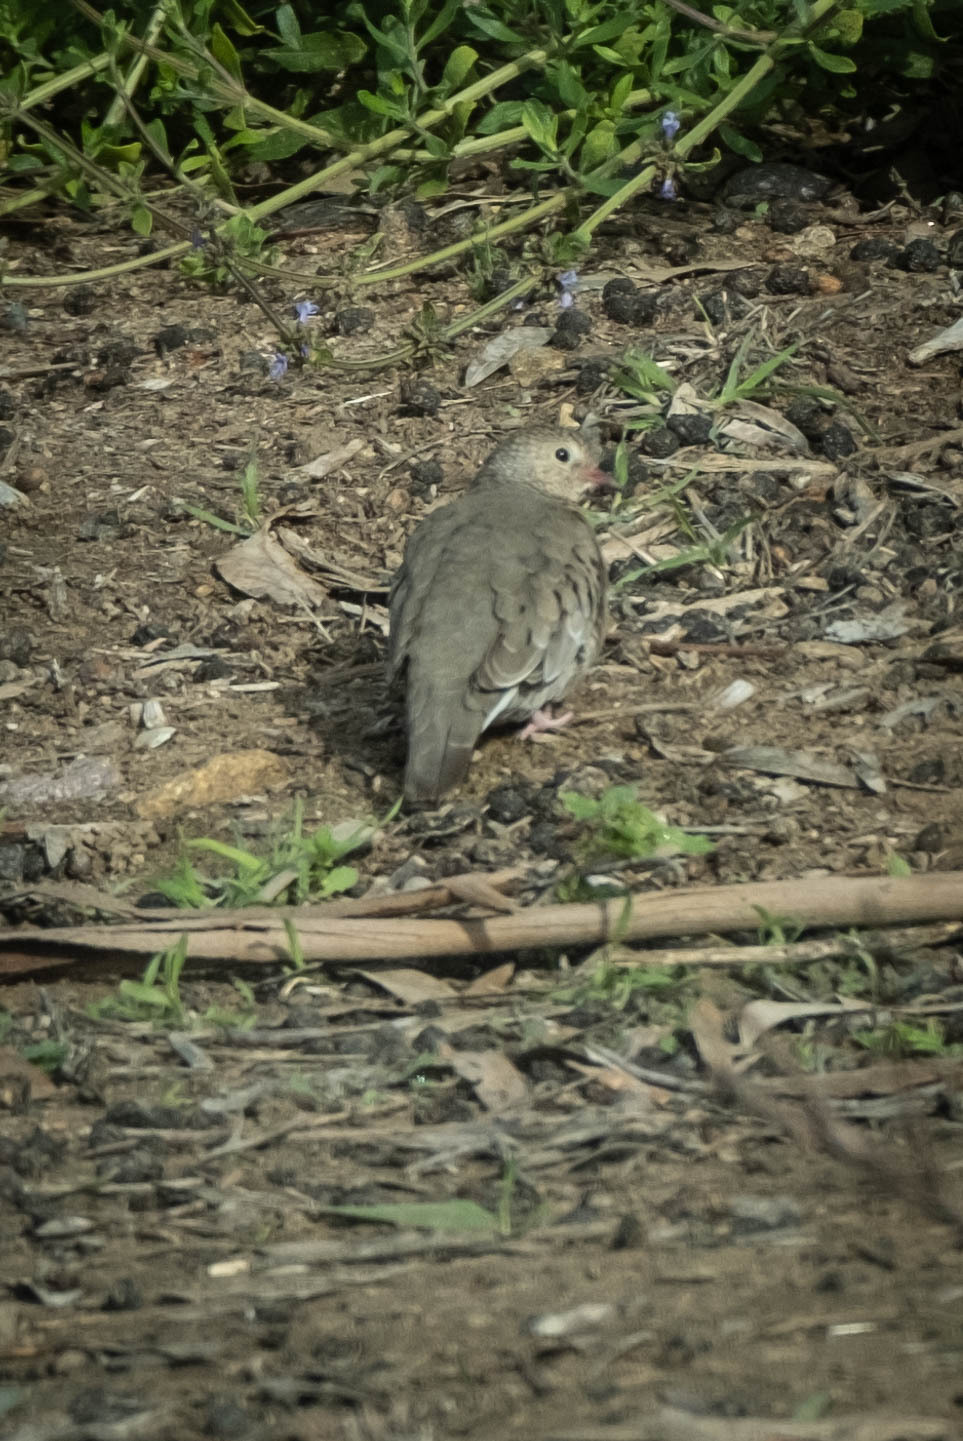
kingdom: Animalia
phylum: Chordata
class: Aves
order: Columbiformes
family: Columbidae
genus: Columbina
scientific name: Columbina passerina
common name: Common ground-dove
